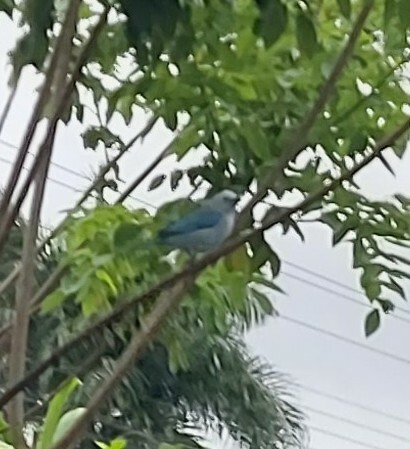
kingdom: Animalia
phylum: Chordata
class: Aves
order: Passeriformes
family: Thraupidae
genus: Thraupis
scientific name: Thraupis episcopus
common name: Blue-grey tanager
